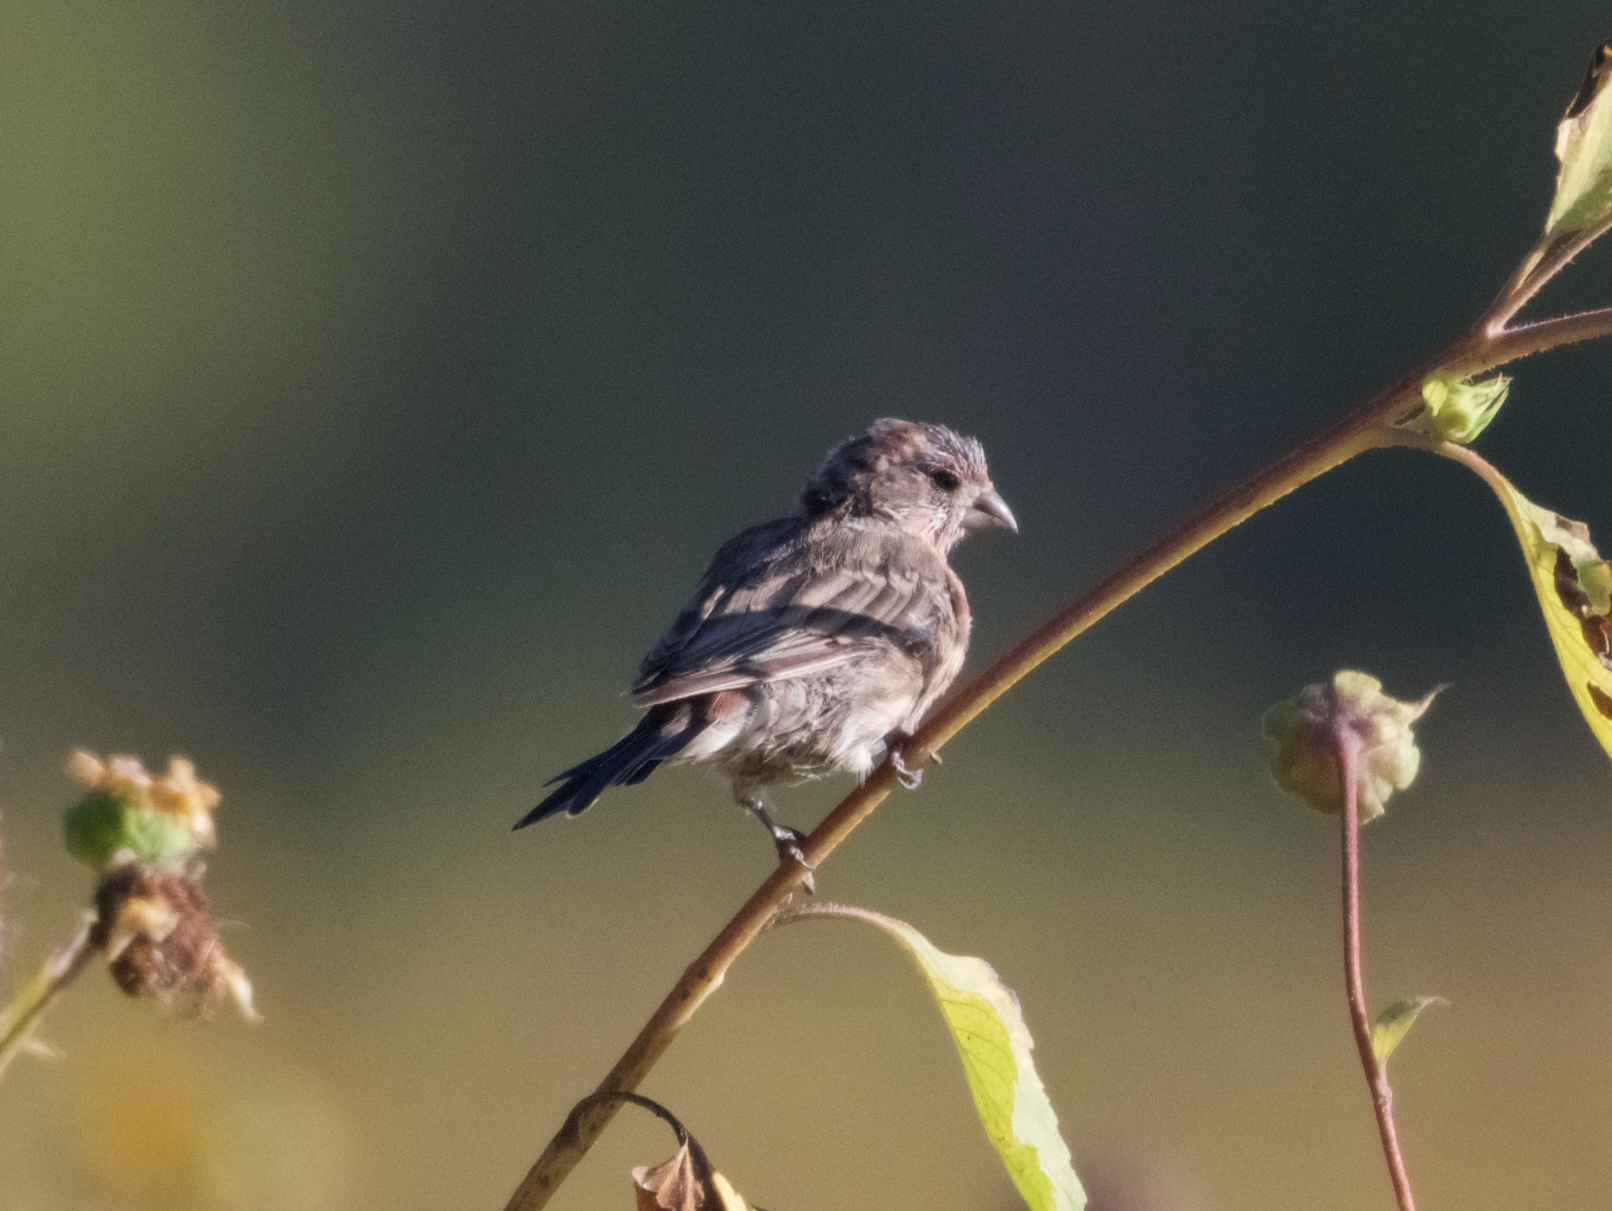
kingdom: Animalia
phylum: Chordata
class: Aves
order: Passeriformes
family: Fringillidae
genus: Haemorhous
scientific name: Haemorhous mexicanus
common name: House finch
